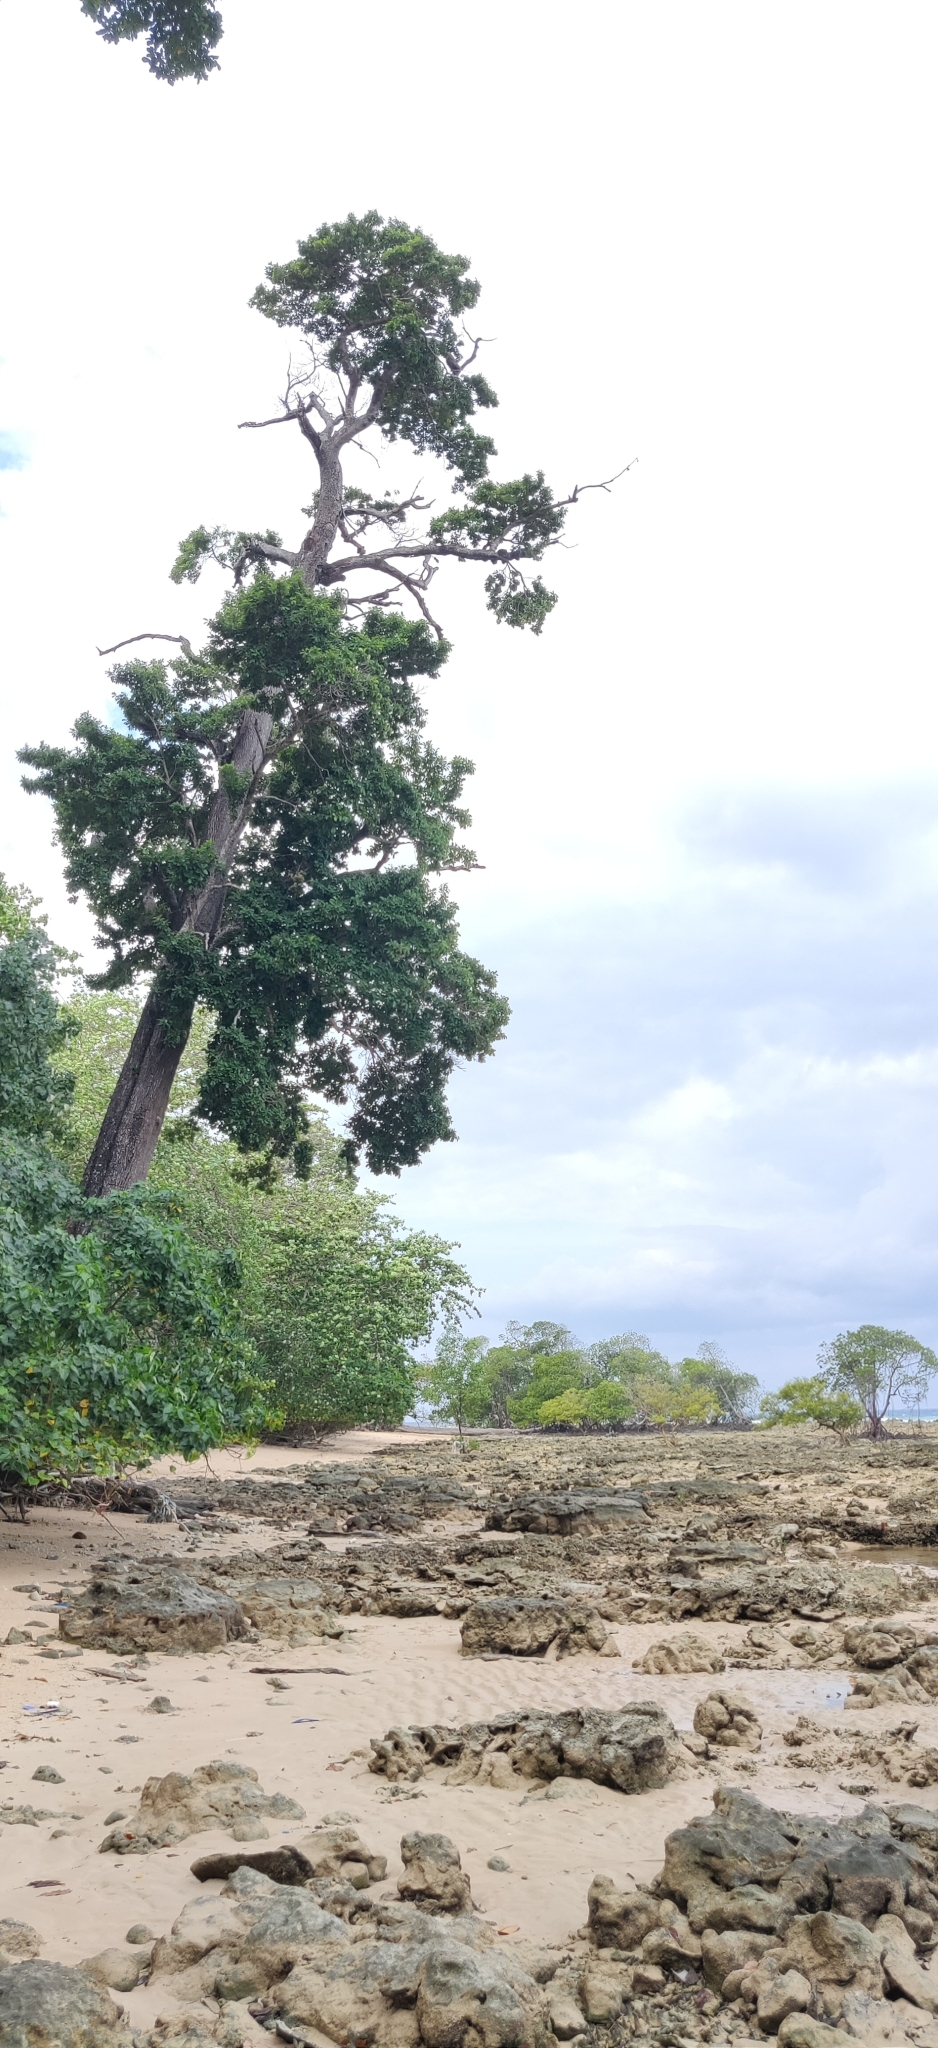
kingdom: Plantae
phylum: Tracheophyta
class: Magnoliopsida
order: Ericales
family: Sapotaceae
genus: Manilkara
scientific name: Manilkara littoralis
